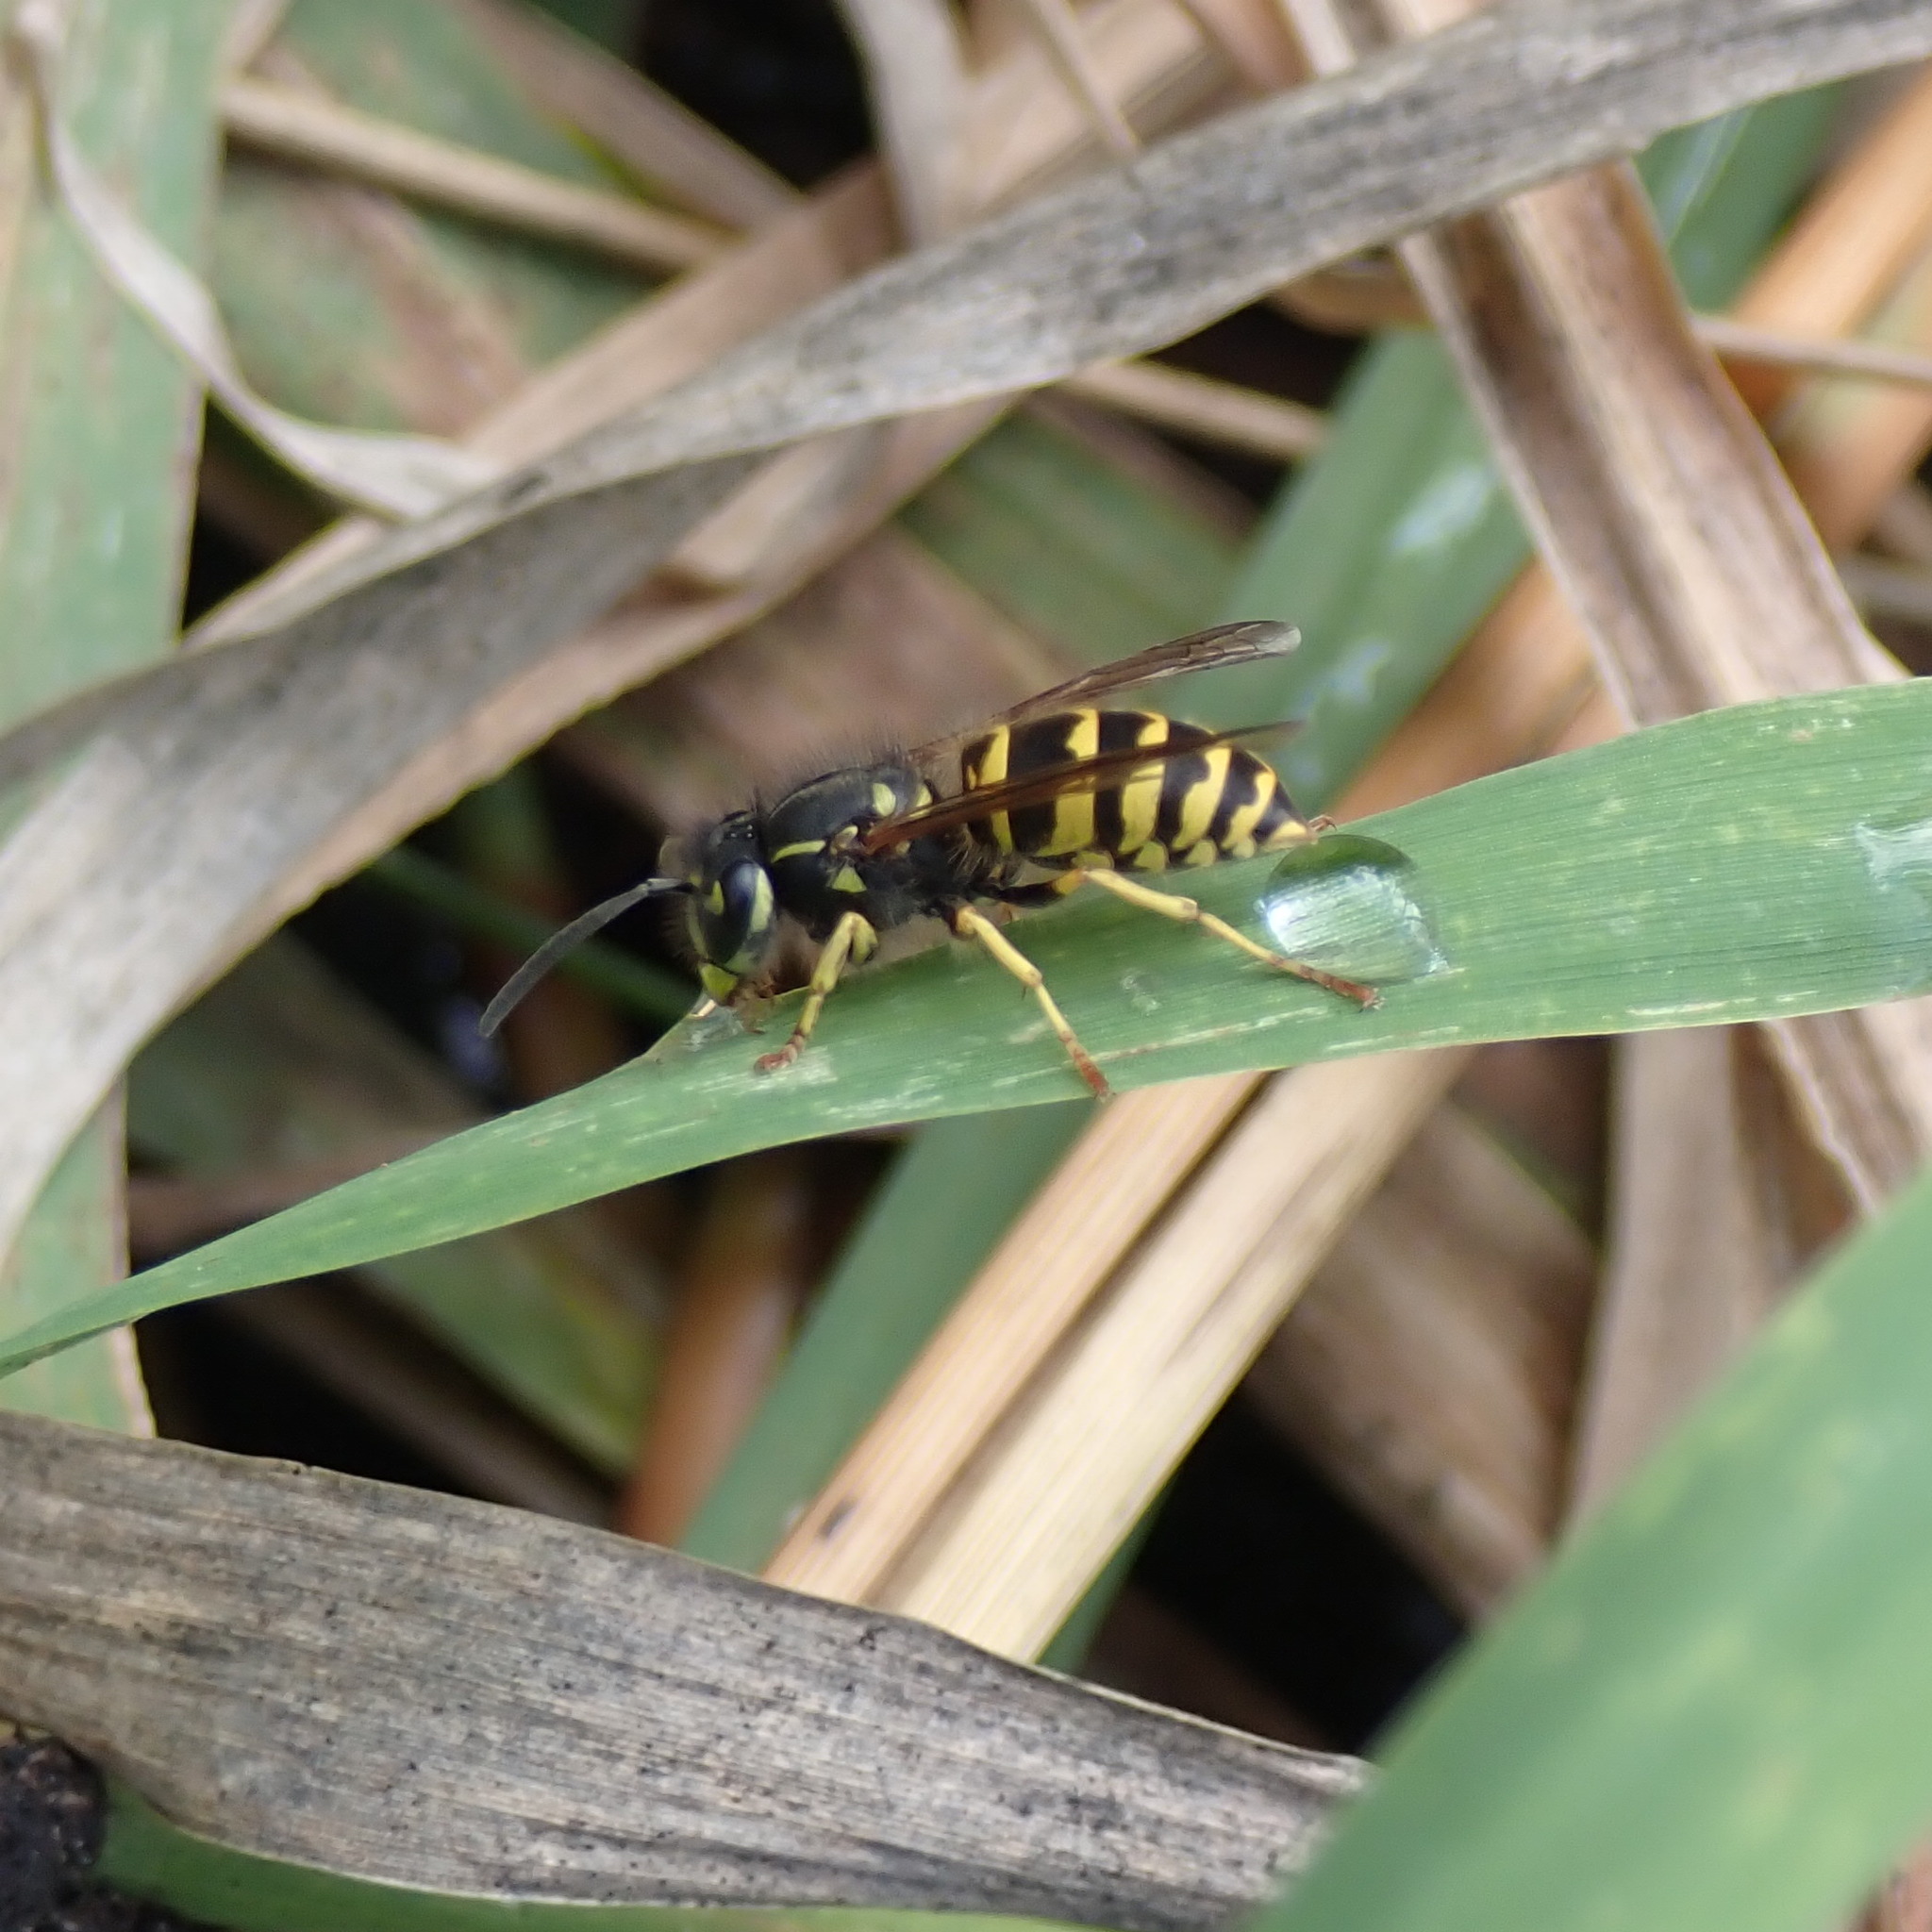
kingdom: Animalia
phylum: Arthropoda
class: Insecta
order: Hymenoptera
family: Vespidae
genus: Vespula
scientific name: Vespula alascensis
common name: Alaska yellowjacket
